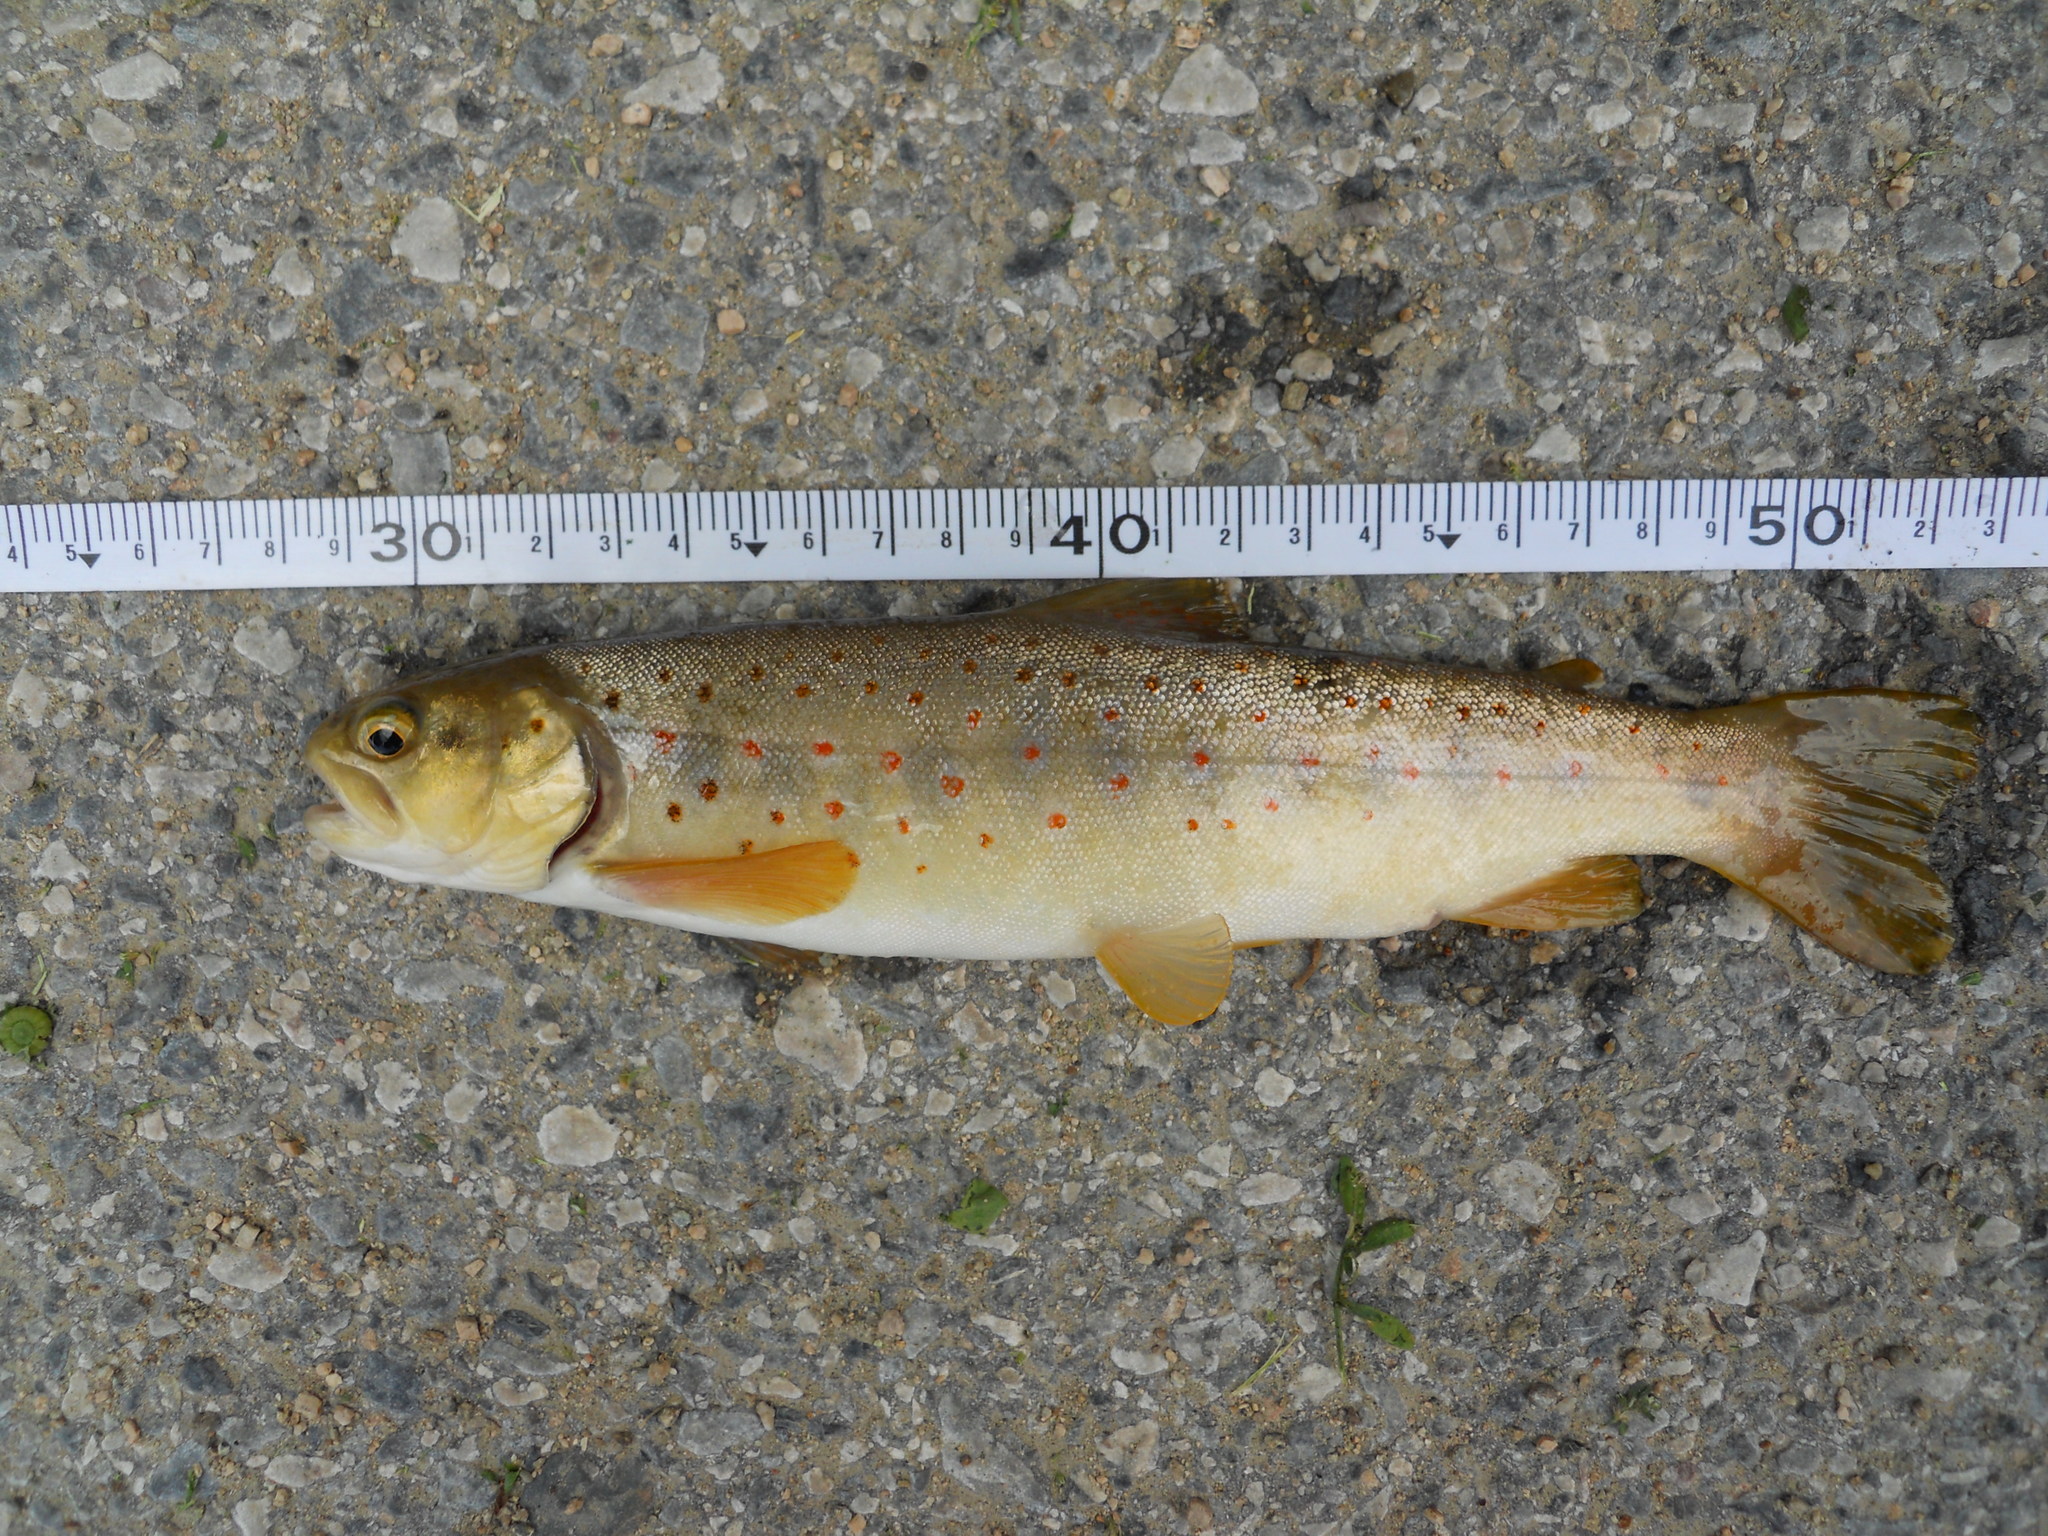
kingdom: Animalia
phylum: Chordata
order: Salmoniformes
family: Salmonidae
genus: Salmo
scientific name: Salmo peristericus
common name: Prespa trout
